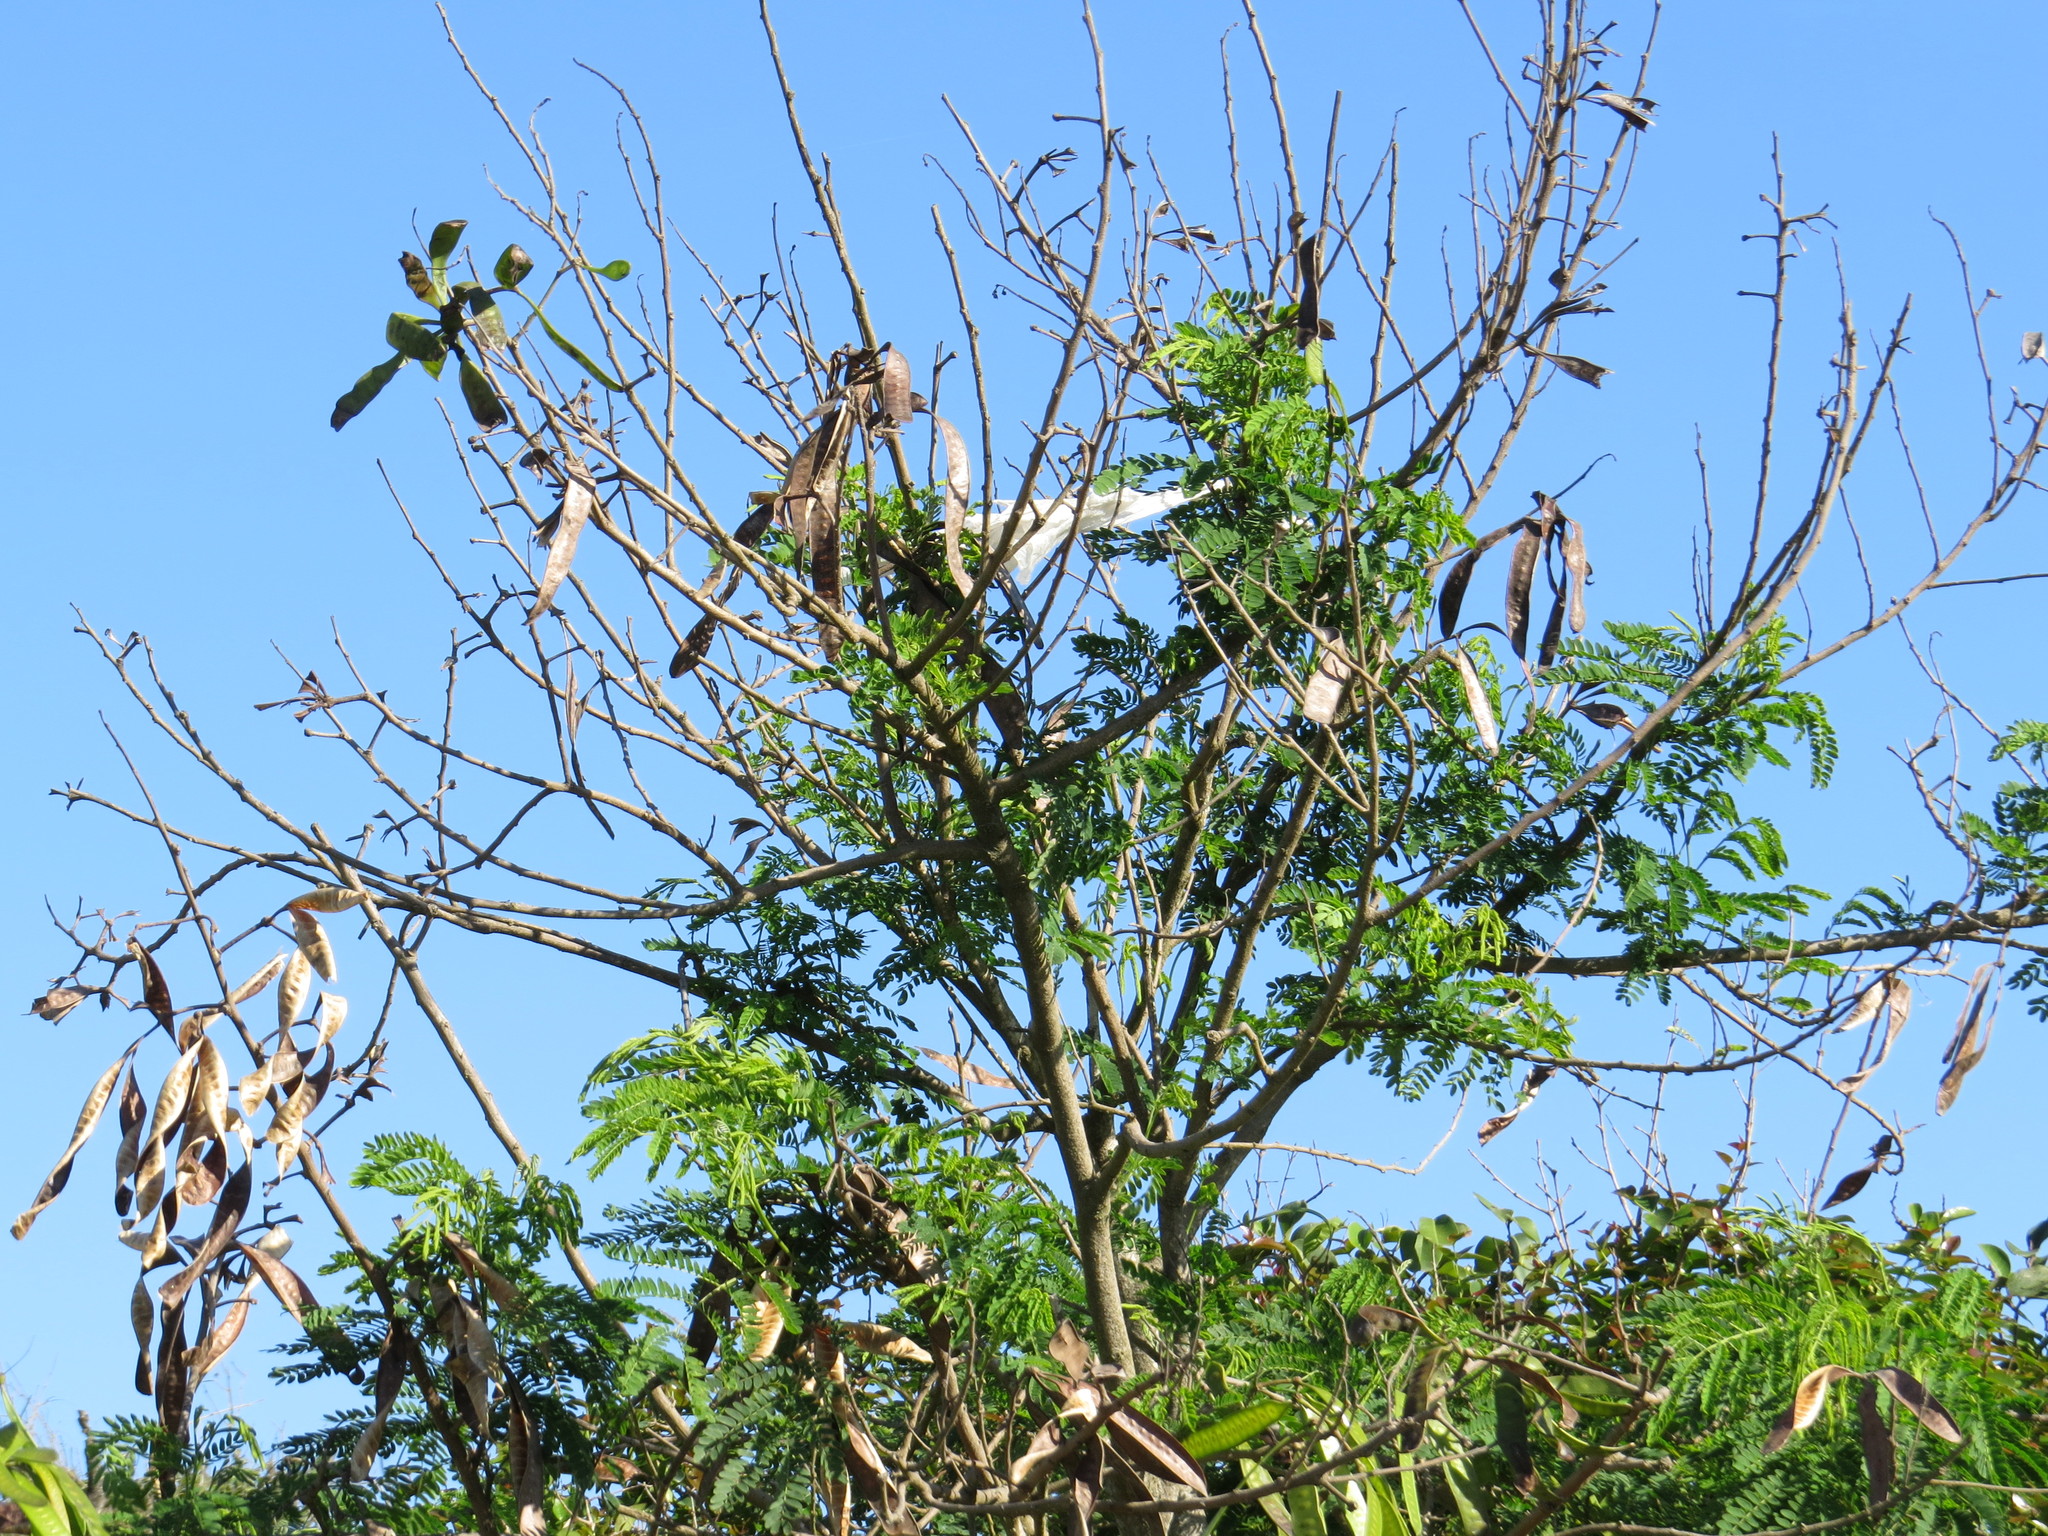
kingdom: Plantae
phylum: Tracheophyta
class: Magnoliopsida
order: Fabales
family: Fabaceae
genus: Leucaena
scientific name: Leucaena leucocephala
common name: White leadtree
